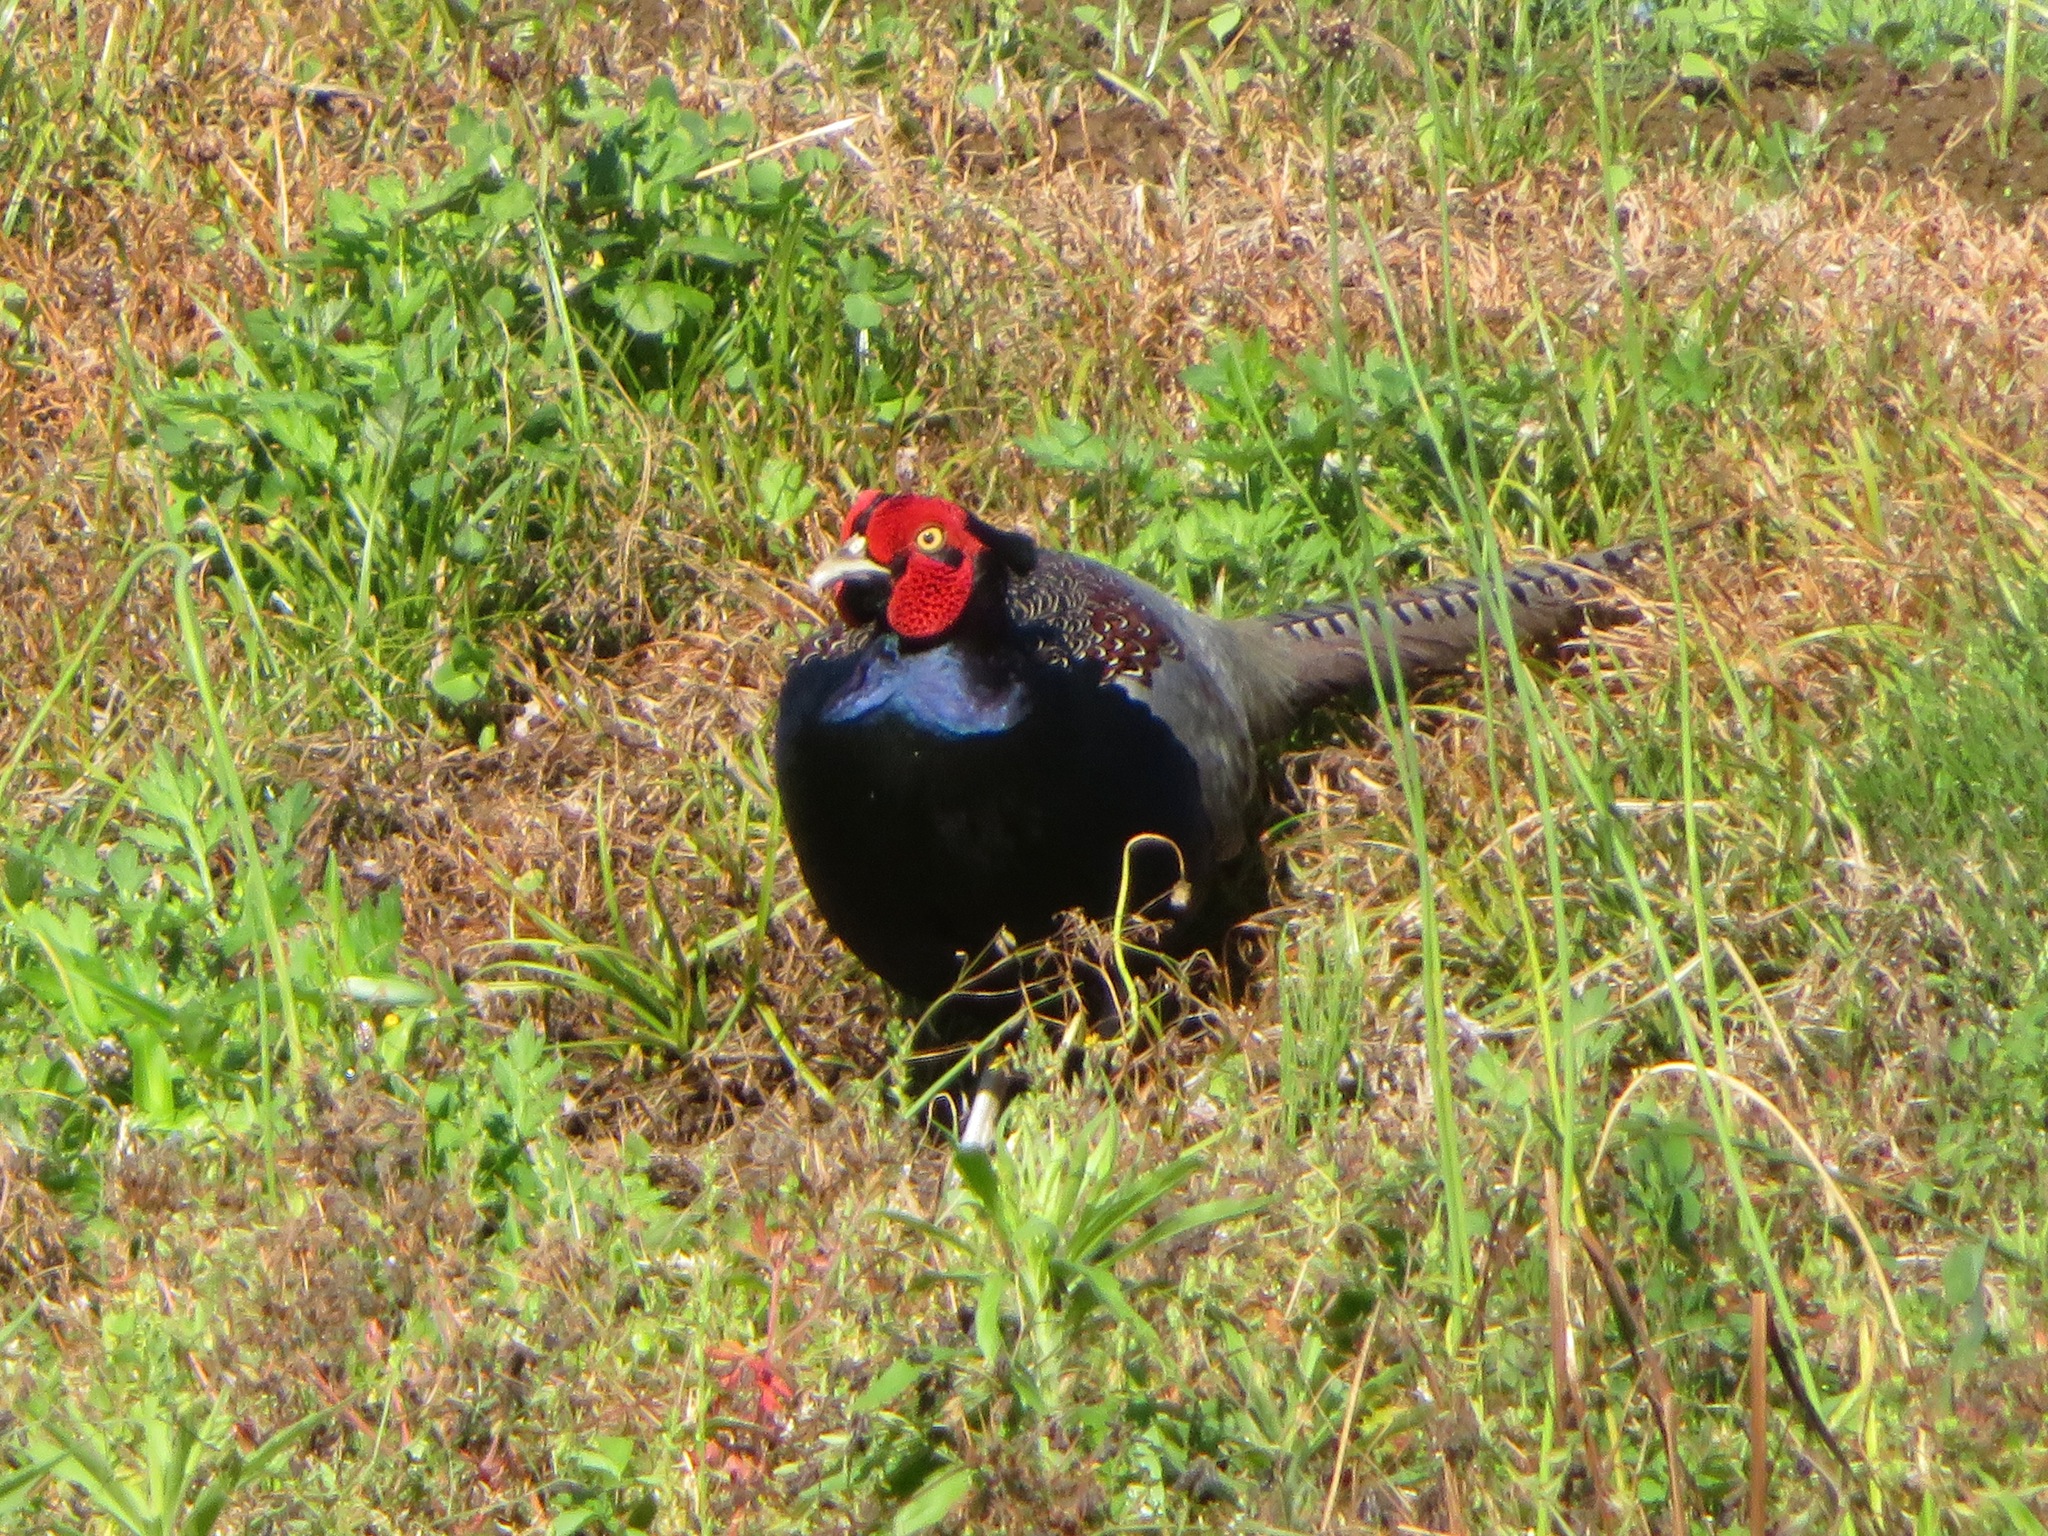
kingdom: Animalia
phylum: Chordata
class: Aves
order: Galliformes
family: Phasianidae
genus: Phasianus
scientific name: Phasianus versicolor
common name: Green pheasant
